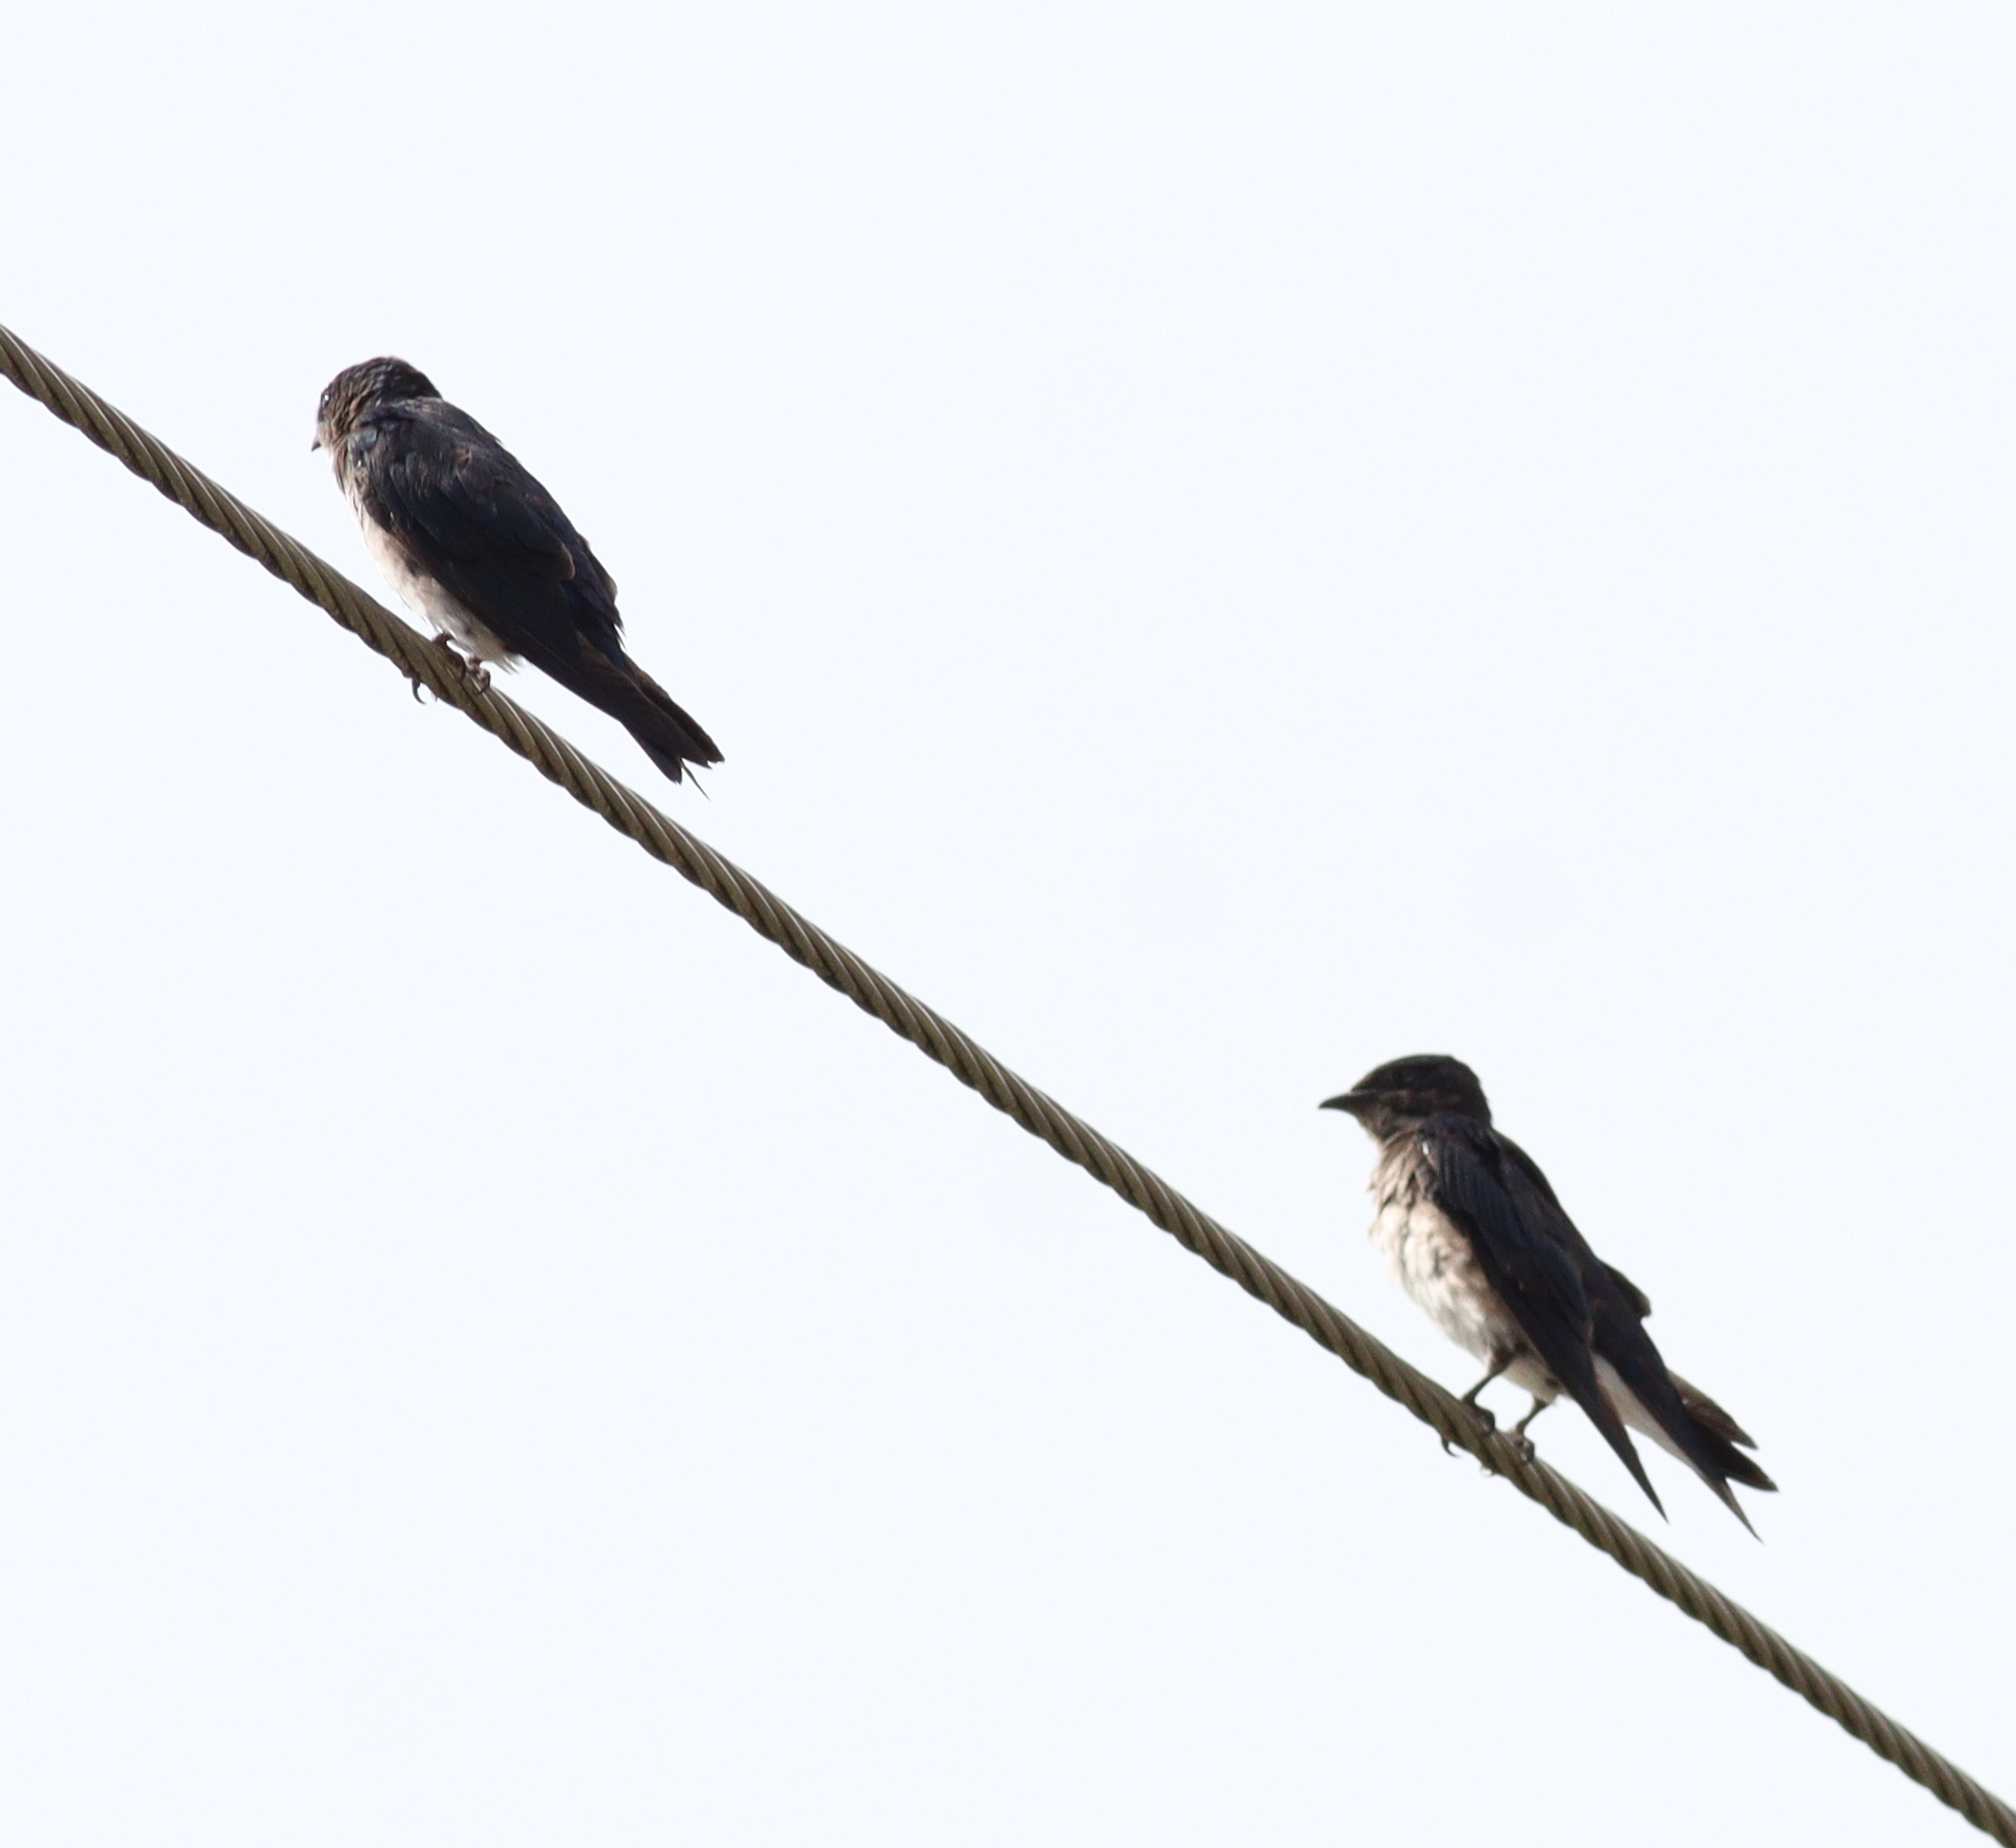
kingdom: Animalia
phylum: Chordata
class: Aves
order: Passeriformes
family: Hirundinidae
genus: Progne
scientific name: Progne chalybea
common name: Grey-breasted martin
